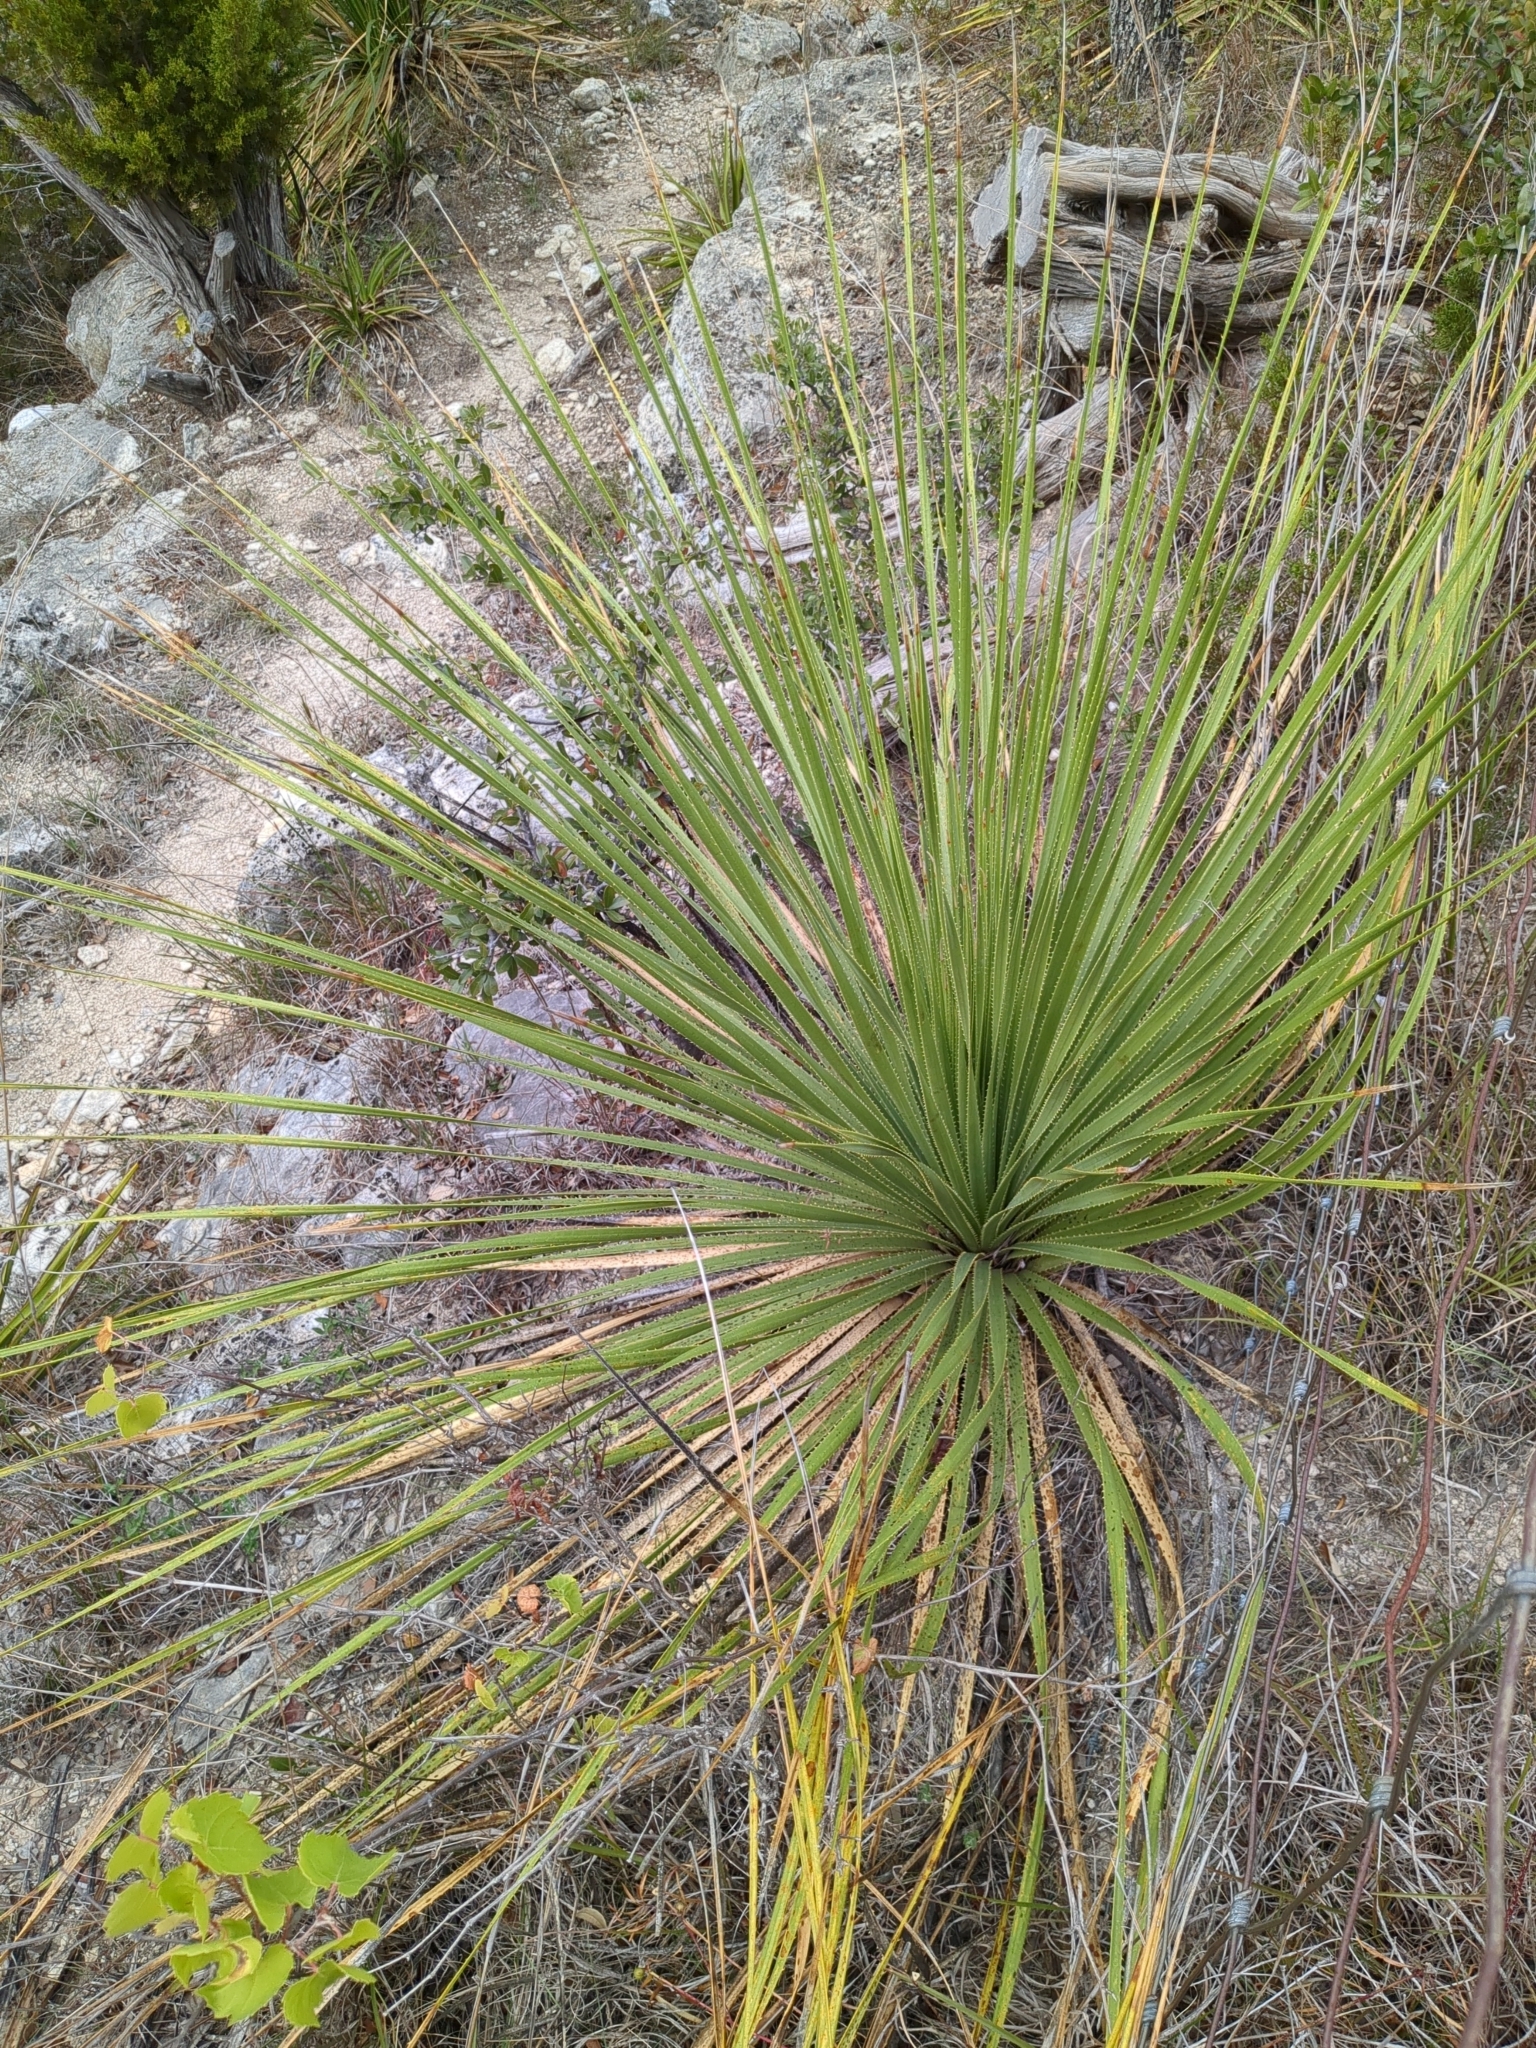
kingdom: Plantae
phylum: Tracheophyta
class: Liliopsida
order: Asparagales
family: Asparagaceae
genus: Dasylirion
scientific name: Dasylirion texanum
